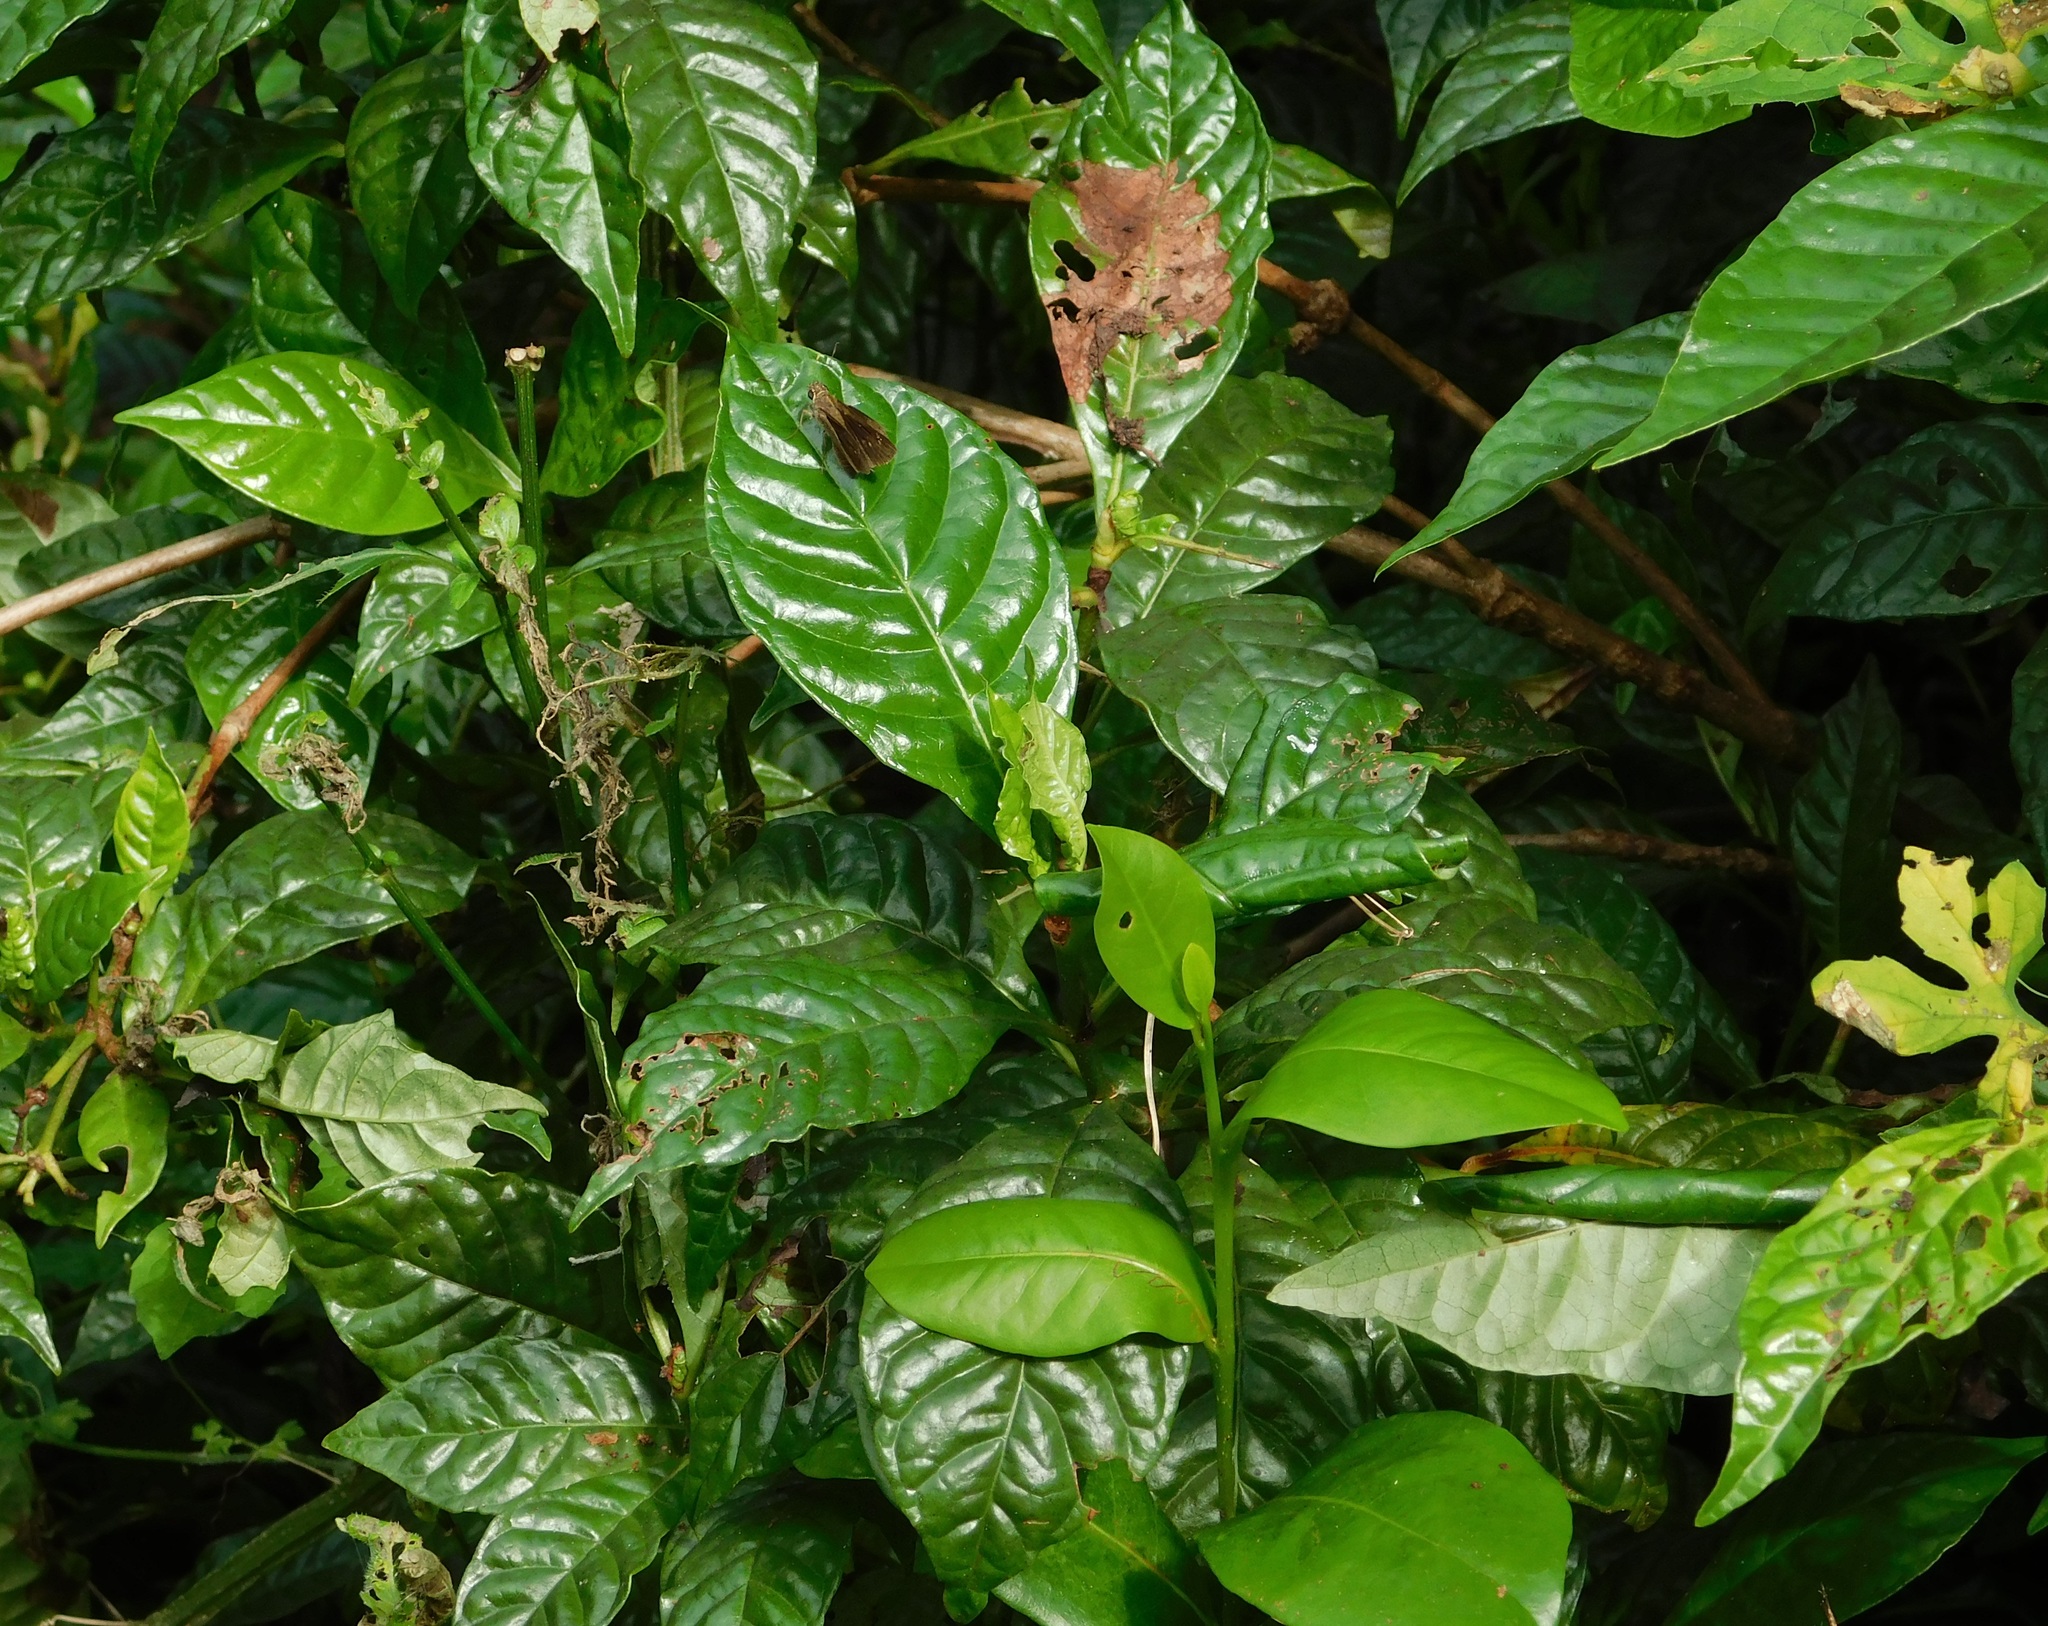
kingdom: Plantae
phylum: Tracheophyta
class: Magnoliopsida
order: Gentianales
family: Rubiaceae
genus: Psychotria
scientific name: Psychotria nervosa
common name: Bastard cankerberry
